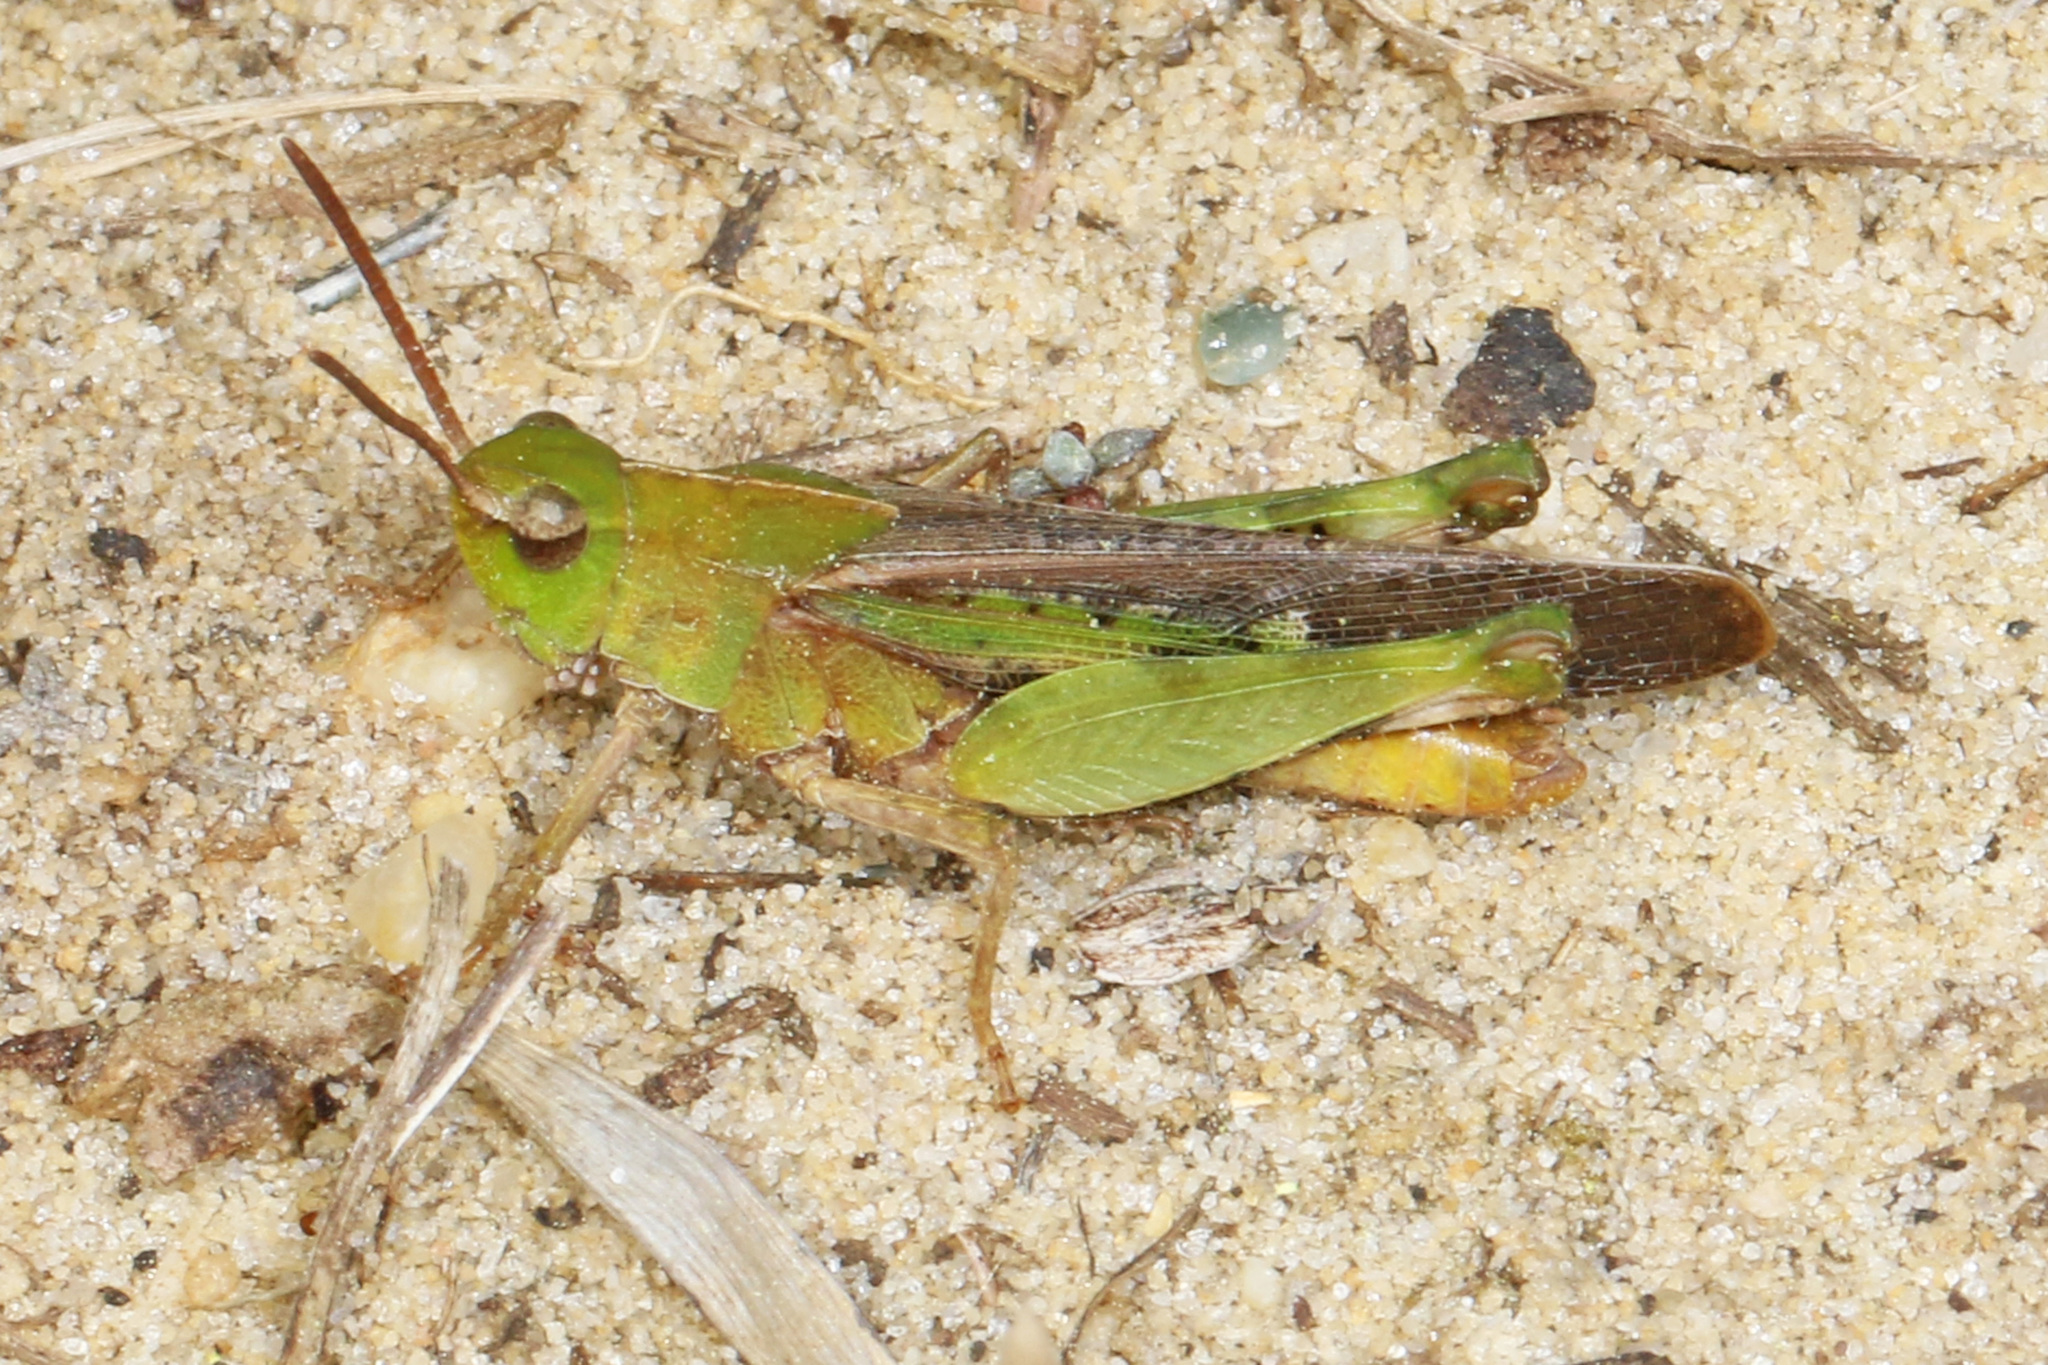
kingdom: Animalia
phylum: Arthropoda
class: Insecta
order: Orthoptera
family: Acrididae
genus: Chortophaga
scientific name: Chortophaga viridifasciata
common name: Green-striped grasshopper
